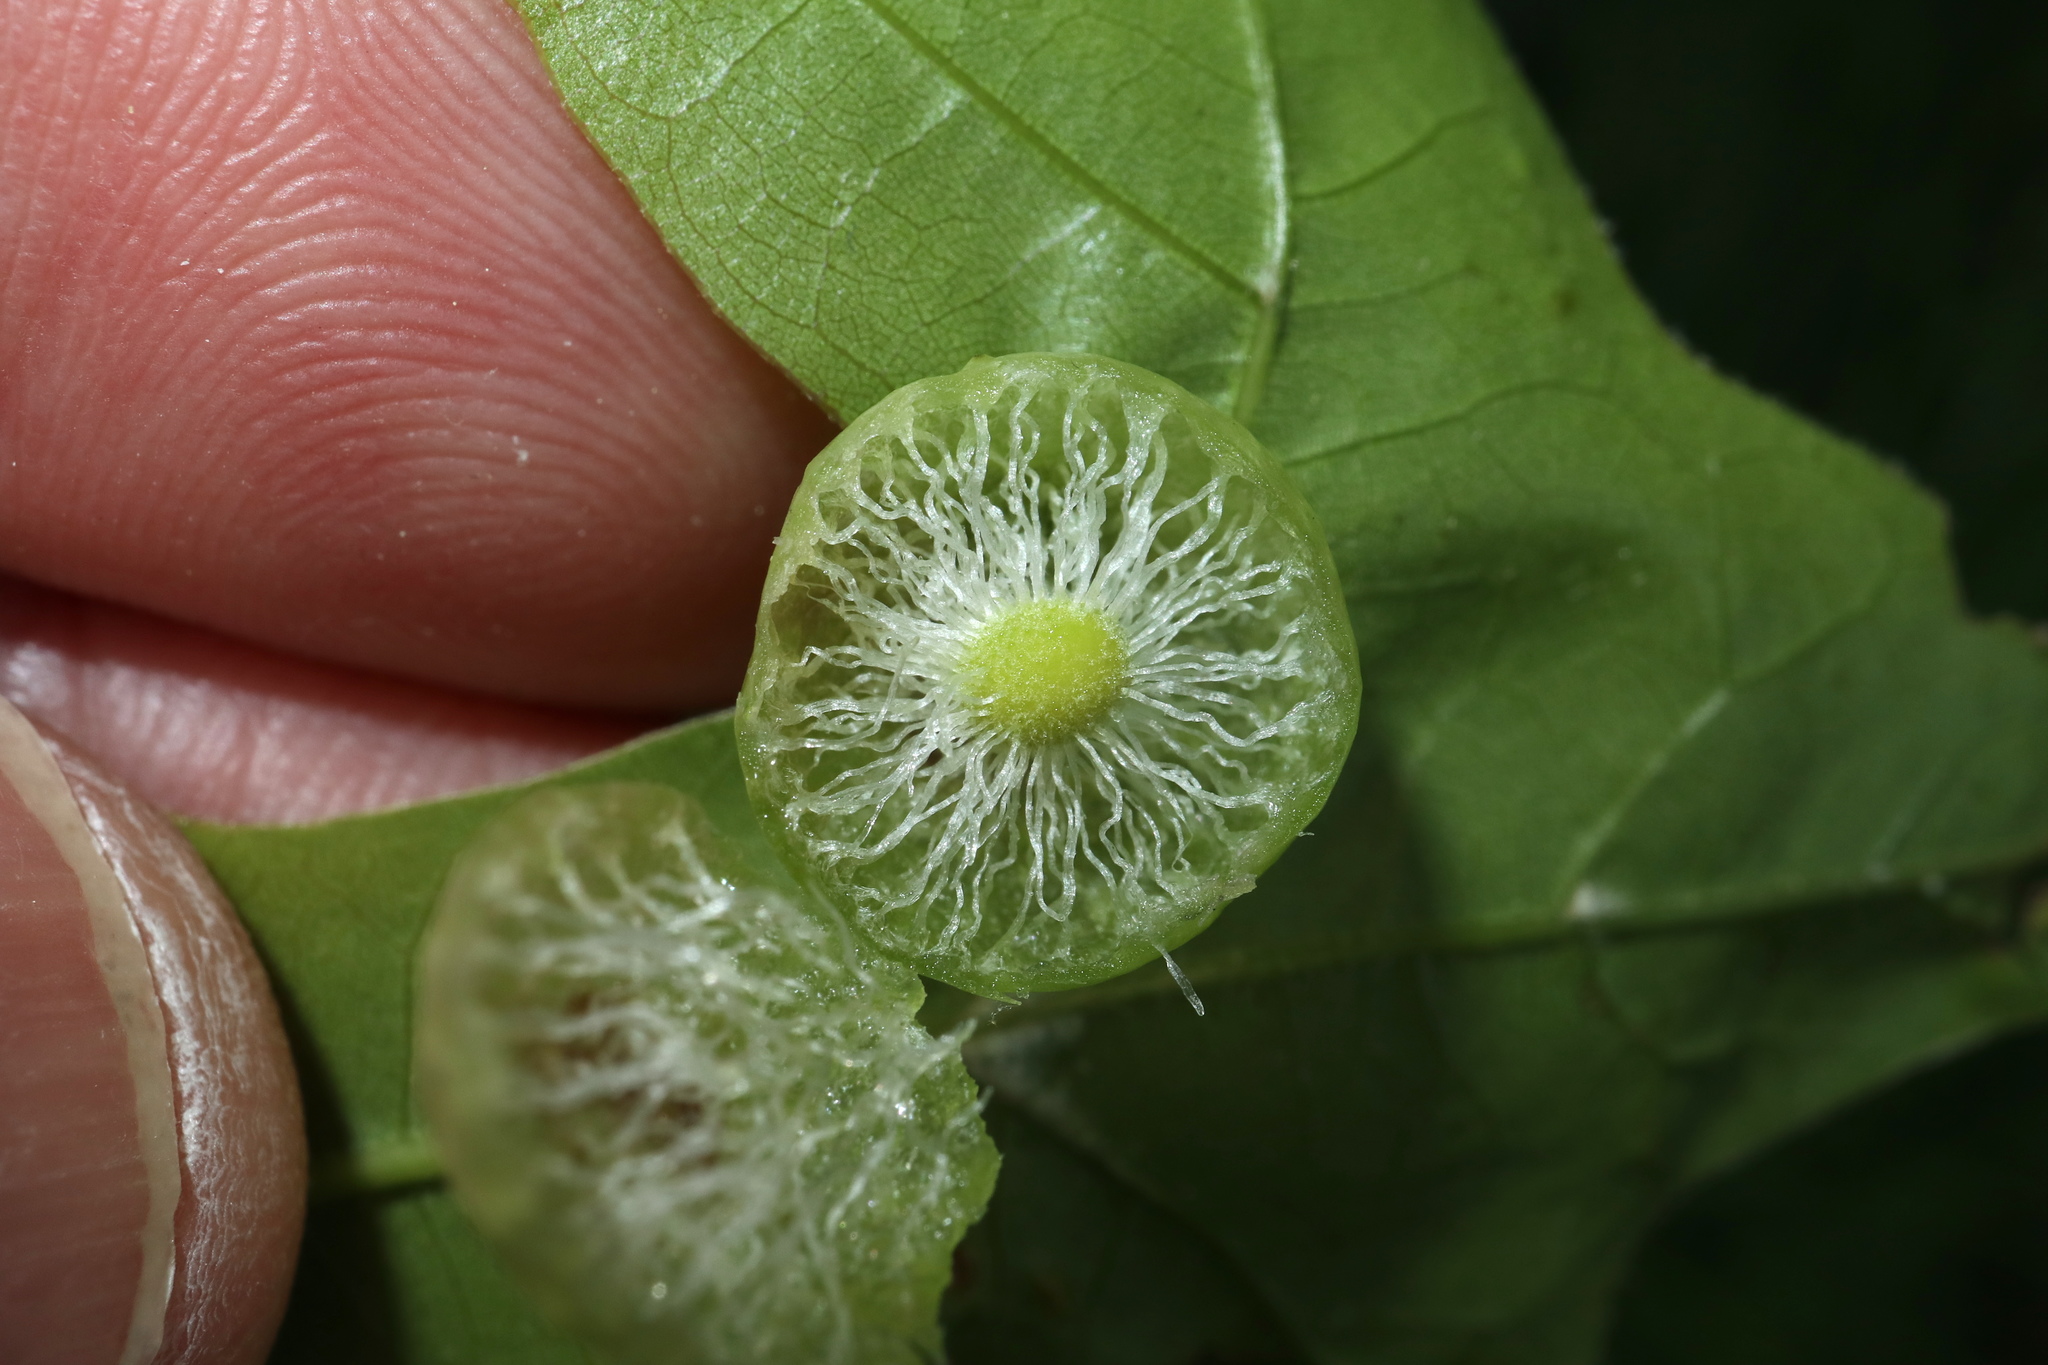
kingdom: Animalia
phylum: Arthropoda
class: Insecta
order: Hymenoptera
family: Cynipidae
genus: Amphibolips
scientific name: Amphibolips
